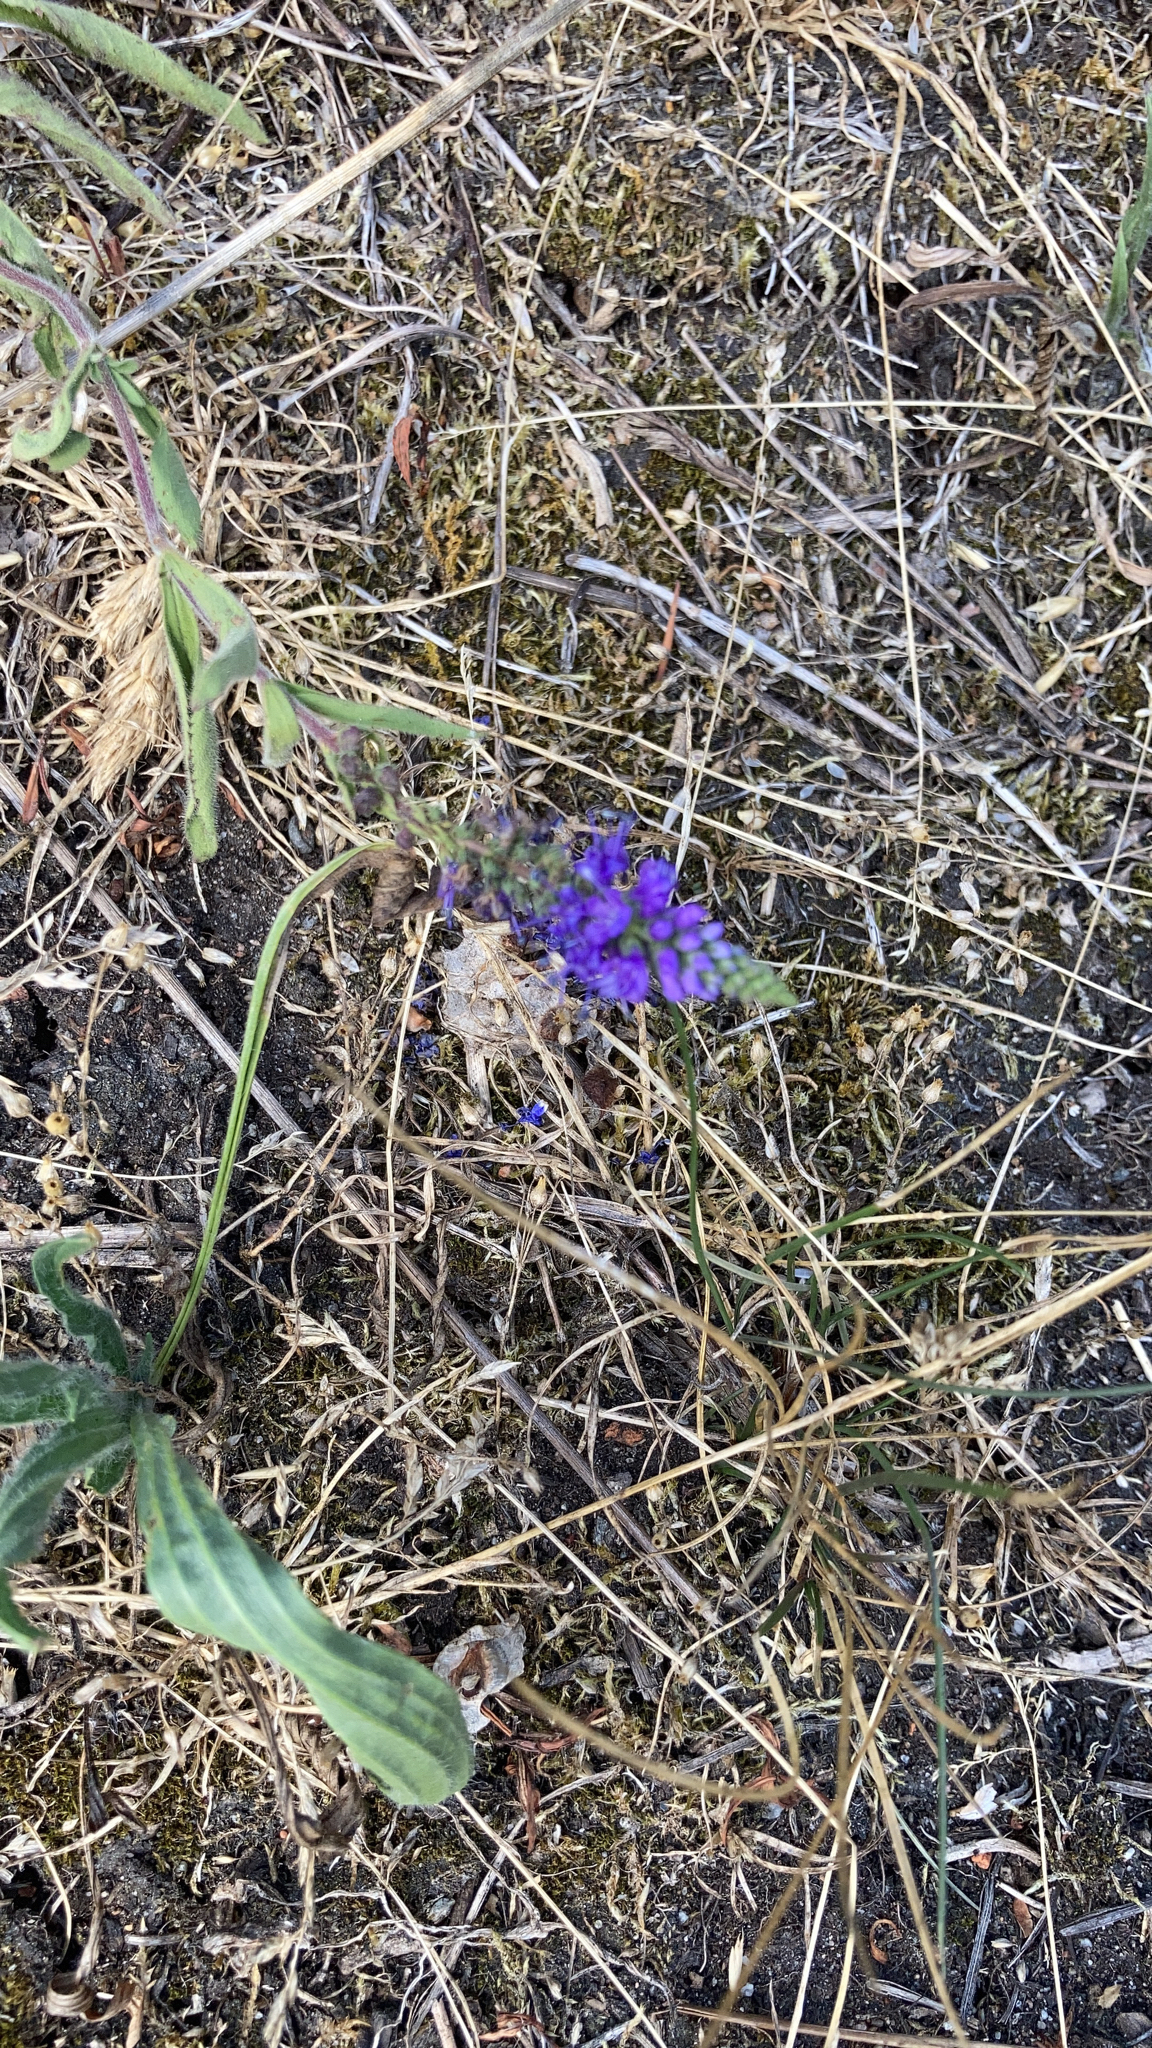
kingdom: Plantae
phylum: Tracheophyta
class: Magnoliopsida
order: Lamiales
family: Plantaginaceae
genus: Veronica
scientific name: Veronica spicata
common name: Spiked speedwell
